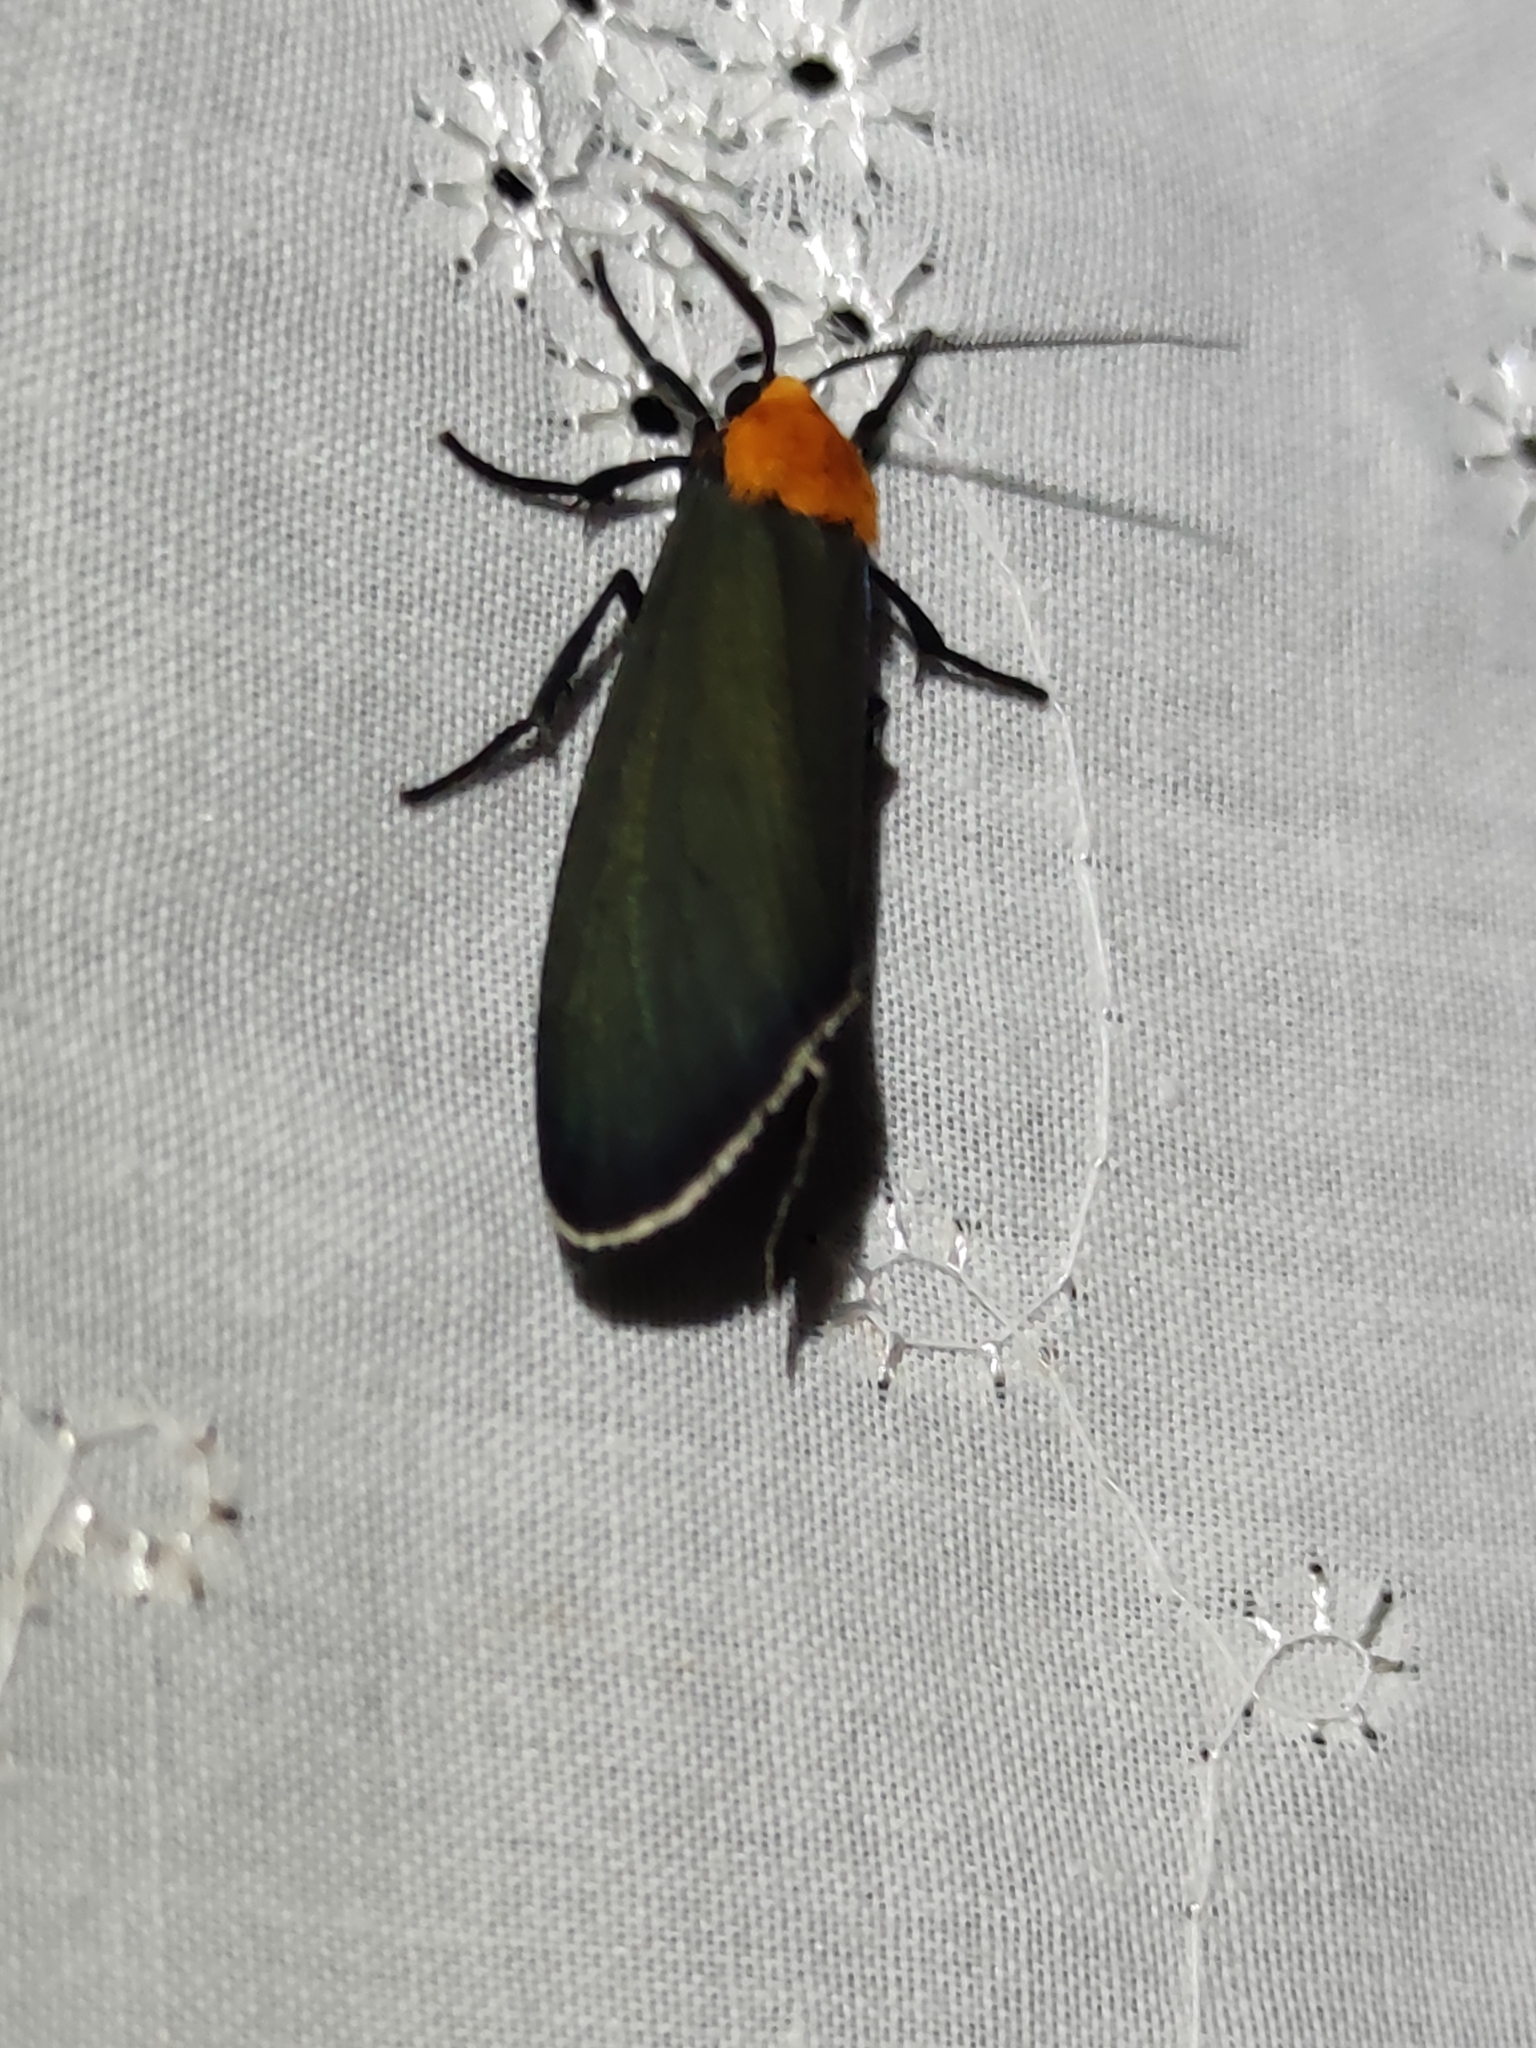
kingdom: Animalia
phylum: Arthropoda
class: Insecta
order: Lepidoptera
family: Erebidae
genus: Apistosia
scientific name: Apistosia judas
